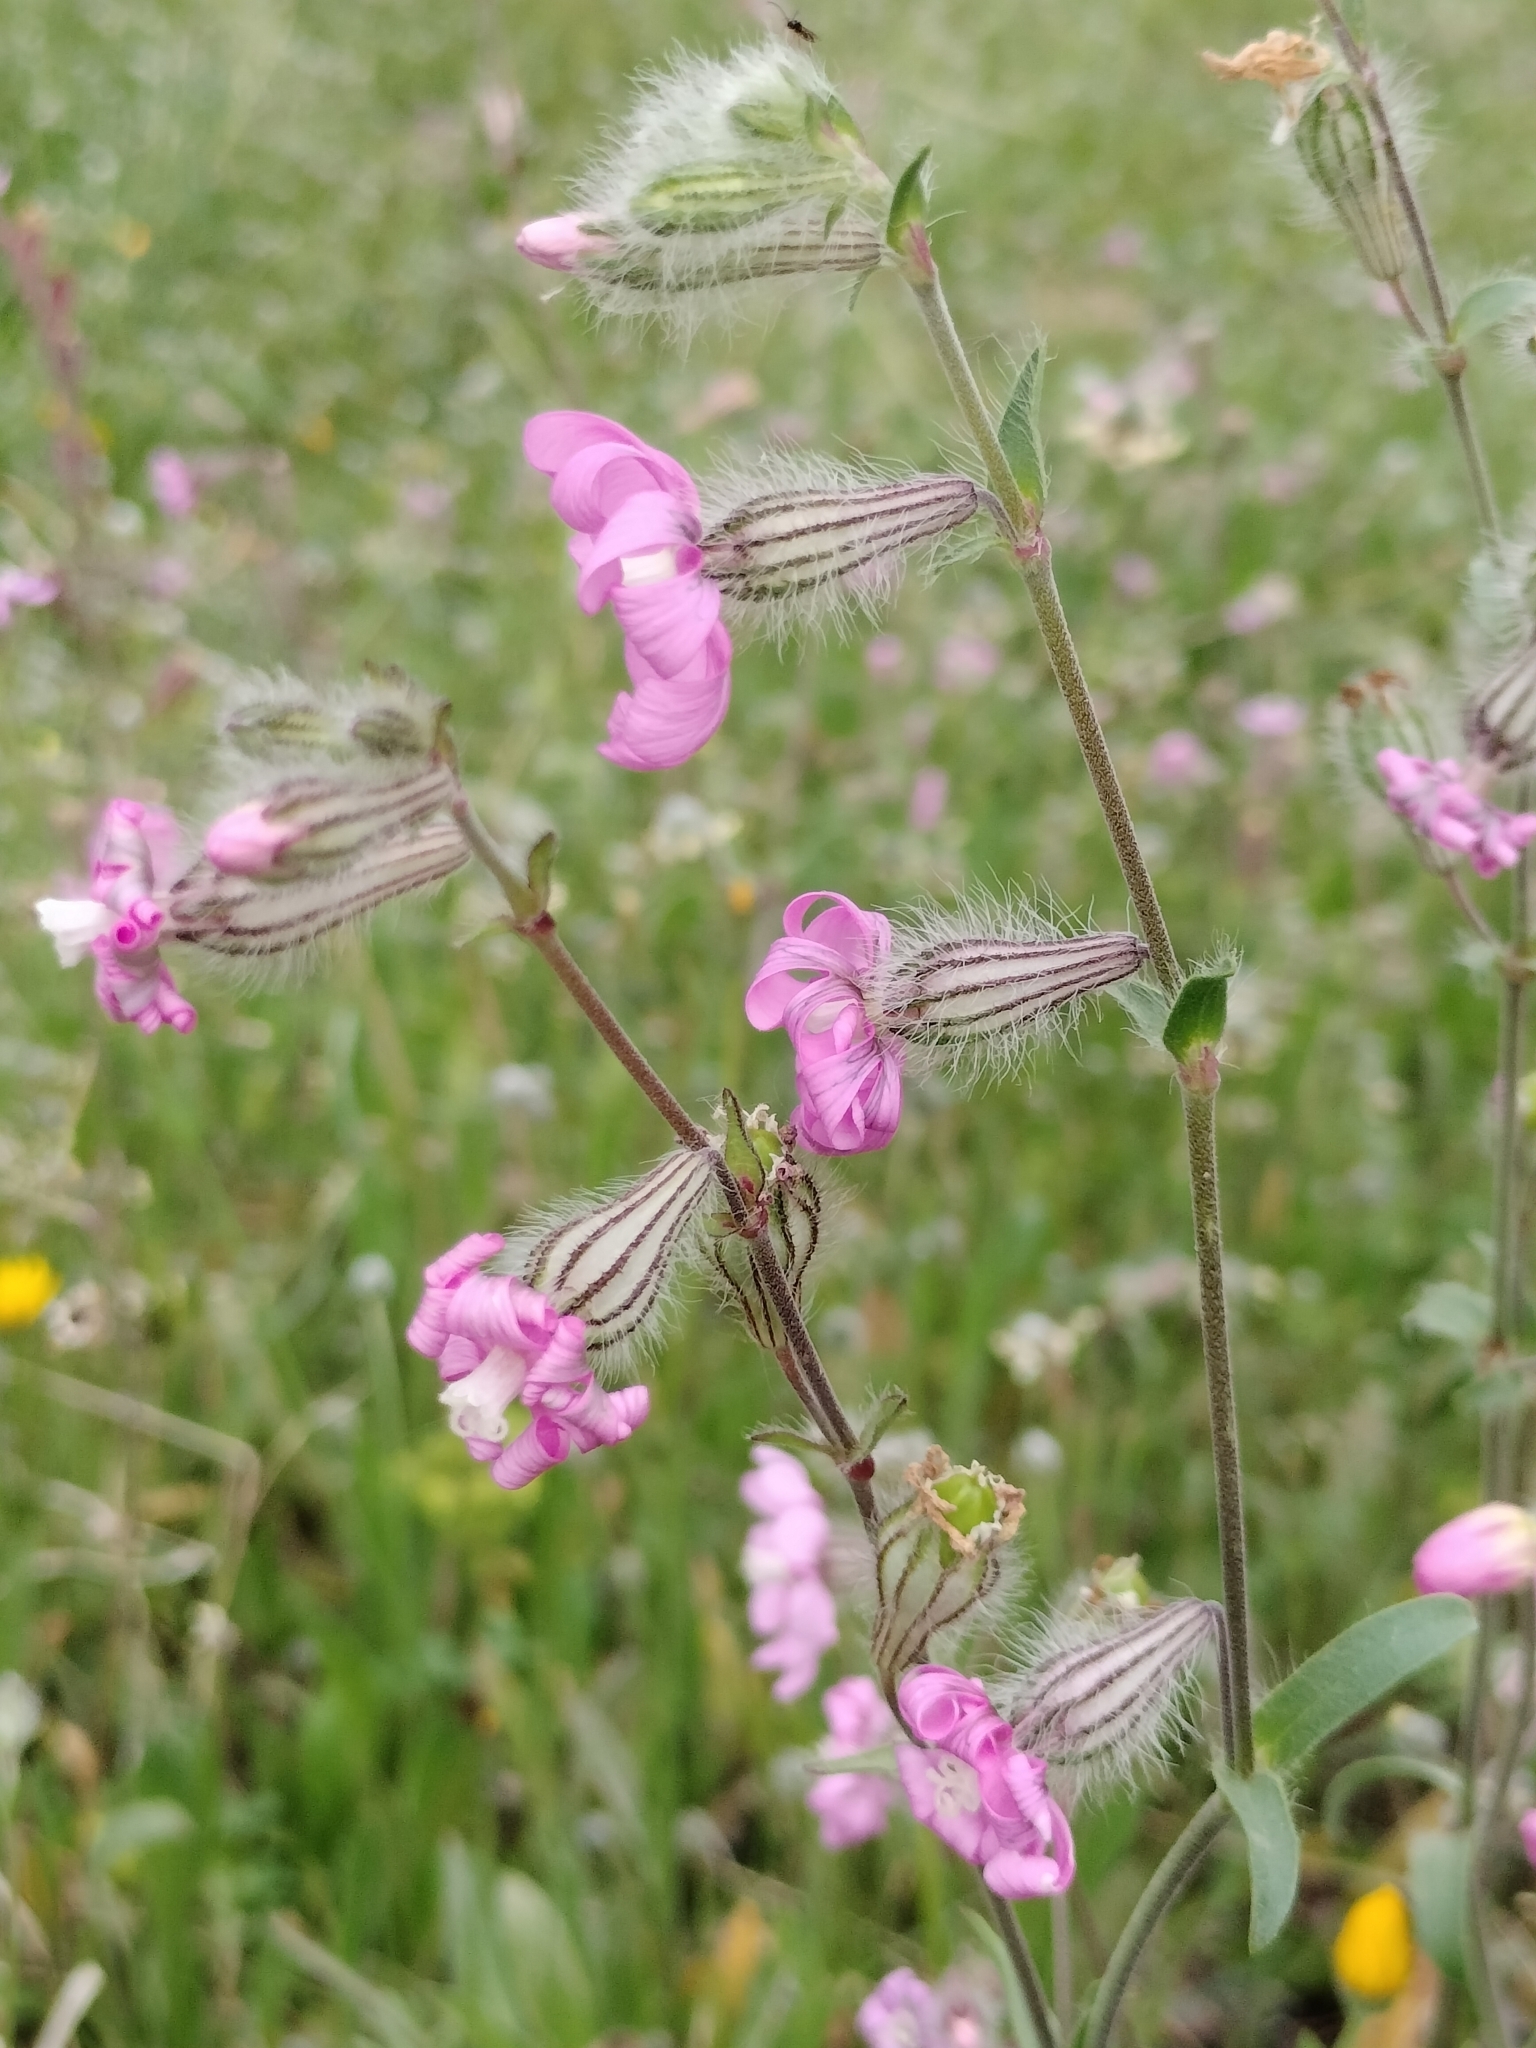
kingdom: Plantae
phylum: Tracheophyta
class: Magnoliopsida
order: Caryophyllales
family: Caryophyllaceae
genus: Silene
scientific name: Silene colorata
